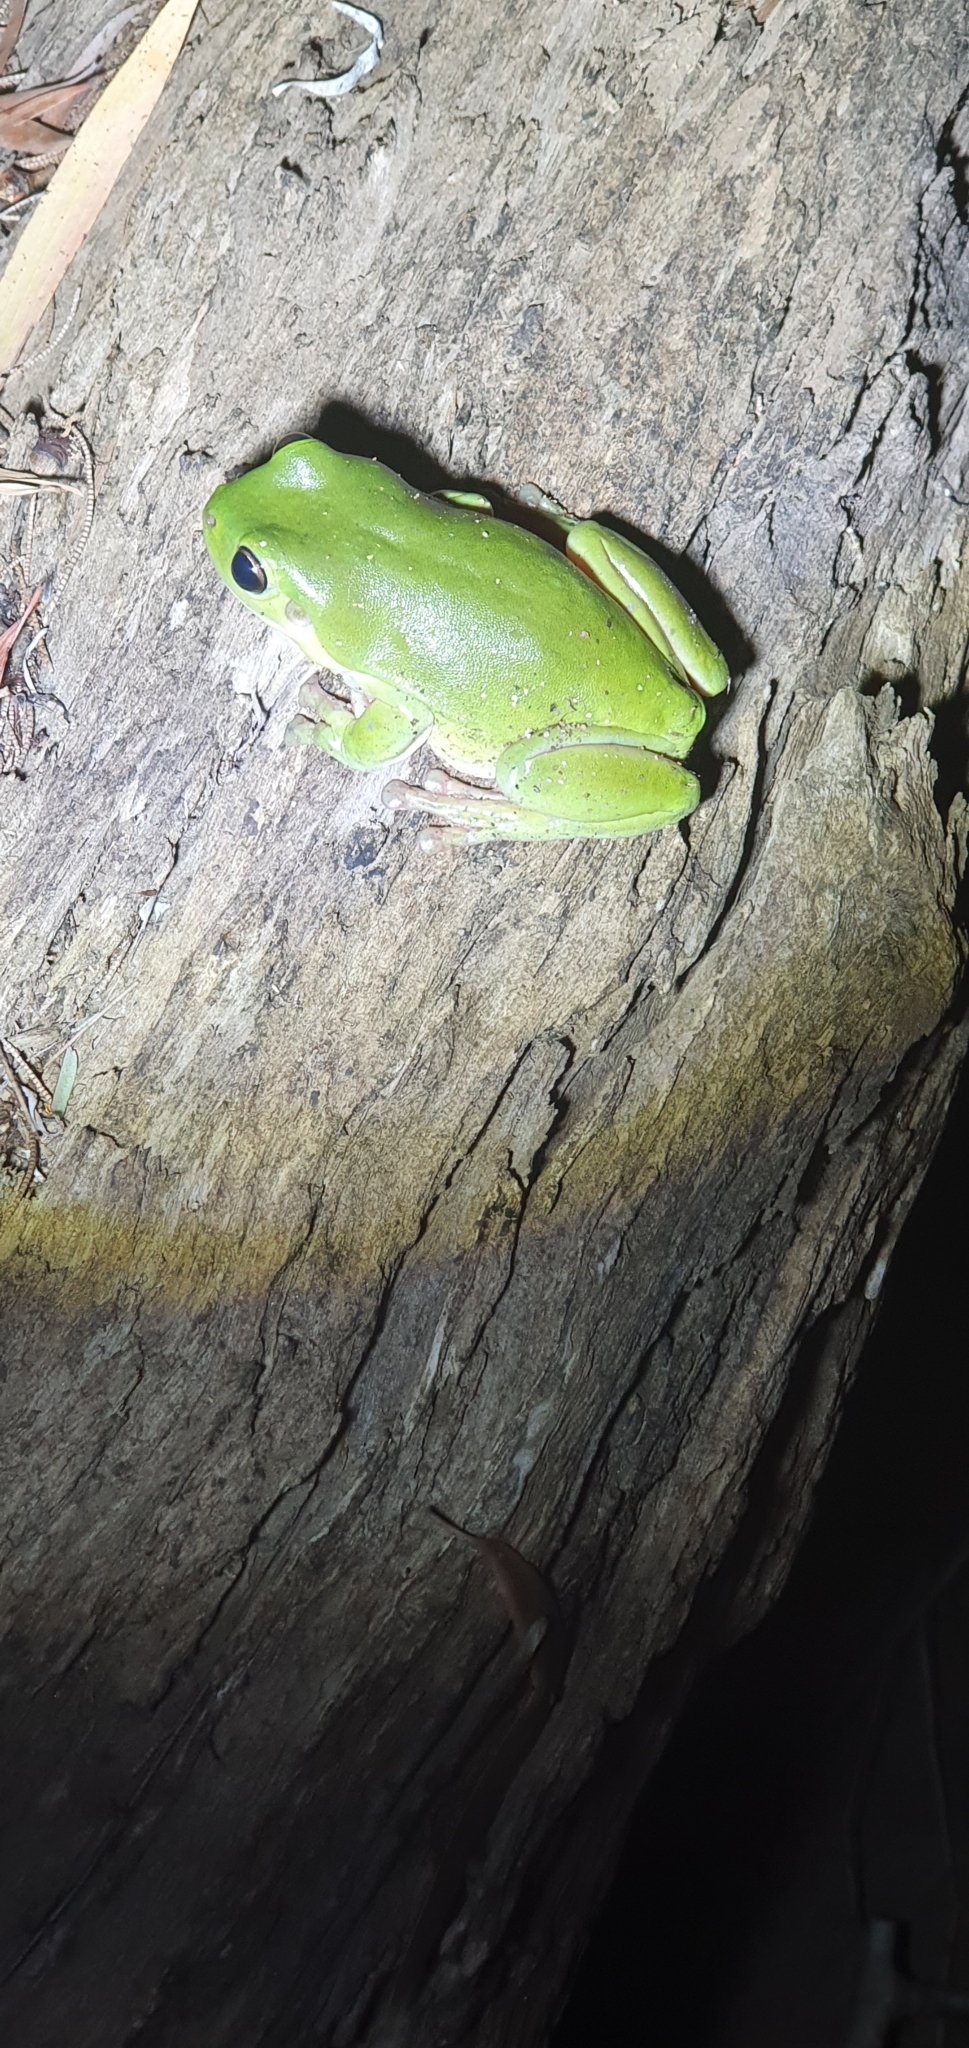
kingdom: Animalia
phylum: Chordata
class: Amphibia
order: Anura
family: Pelodryadidae
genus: Ranoidea
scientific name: Ranoidea caerulea
